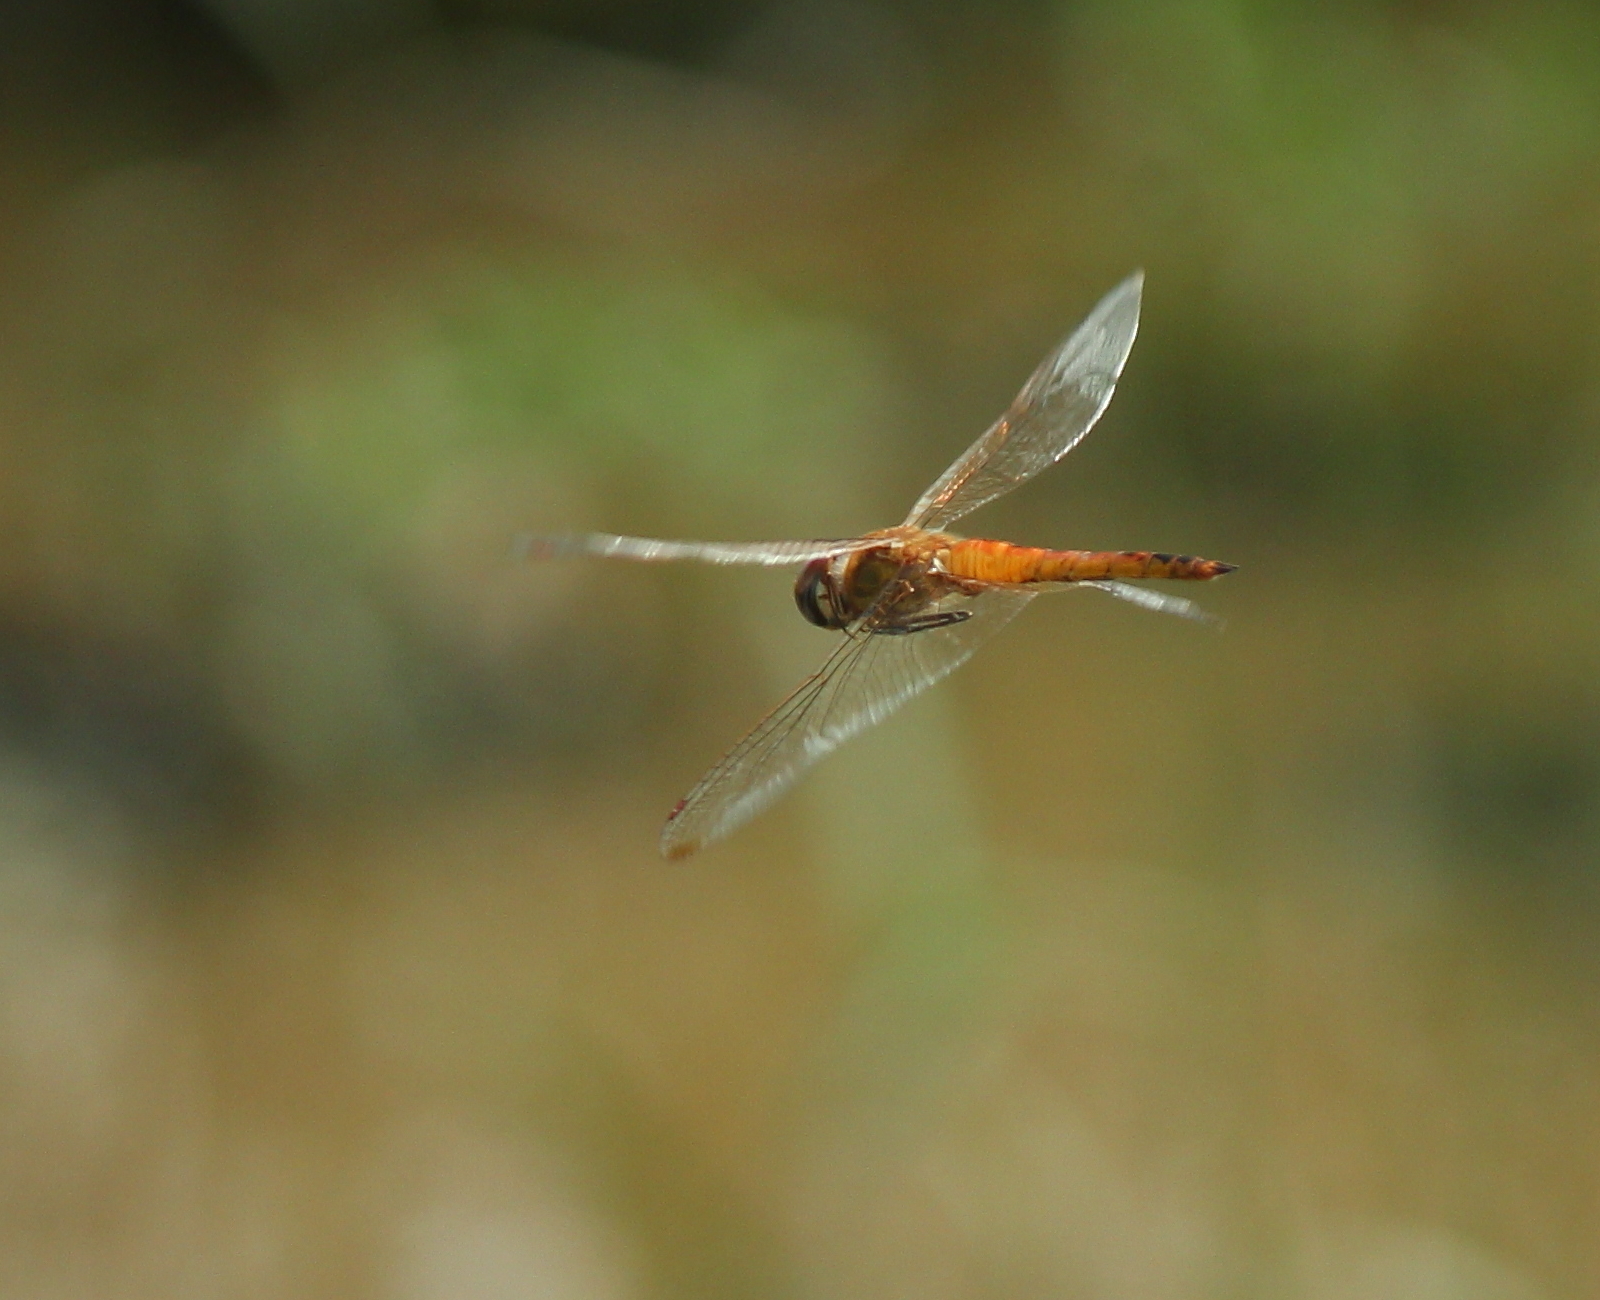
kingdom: Animalia
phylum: Arthropoda
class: Insecta
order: Odonata
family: Libellulidae
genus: Pantala
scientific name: Pantala flavescens
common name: Wandering glider
